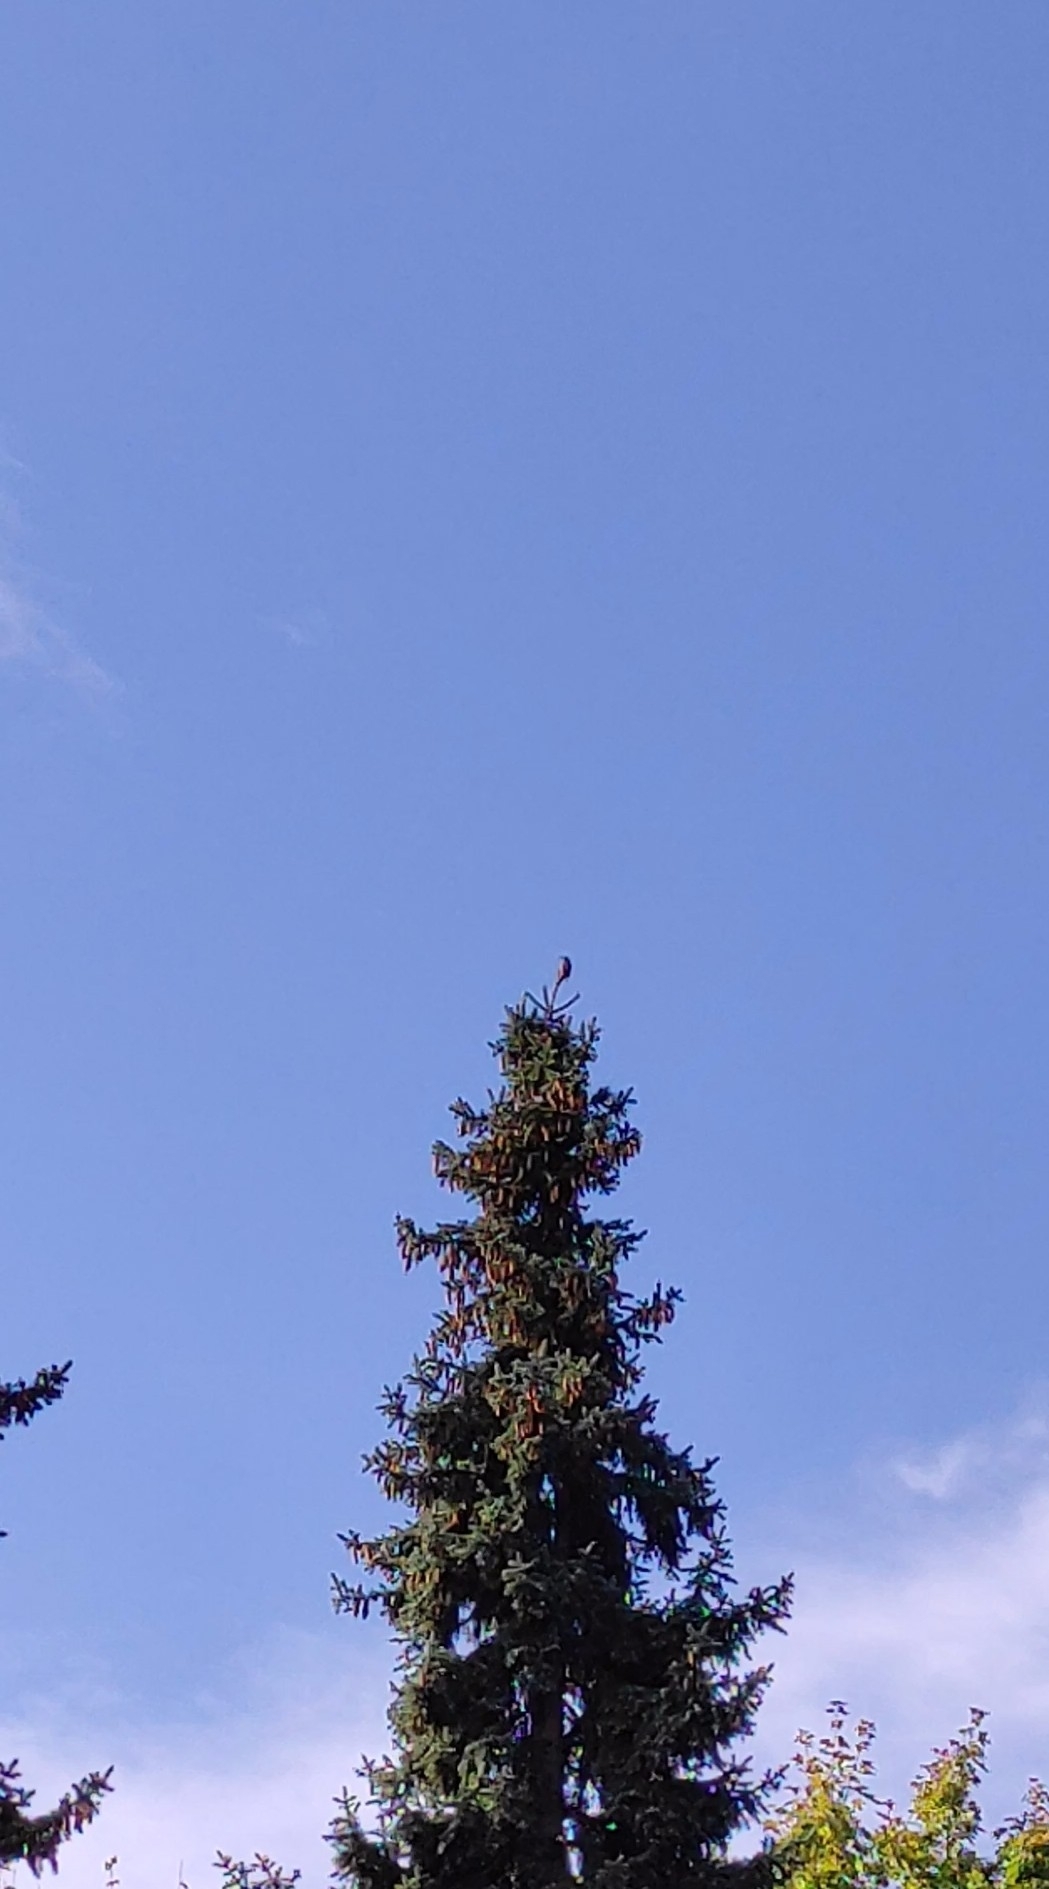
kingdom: Animalia
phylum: Chordata
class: Aves
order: Piciformes
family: Picidae
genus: Dendrocopos
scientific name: Dendrocopos major
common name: Great spotted woodpecker
